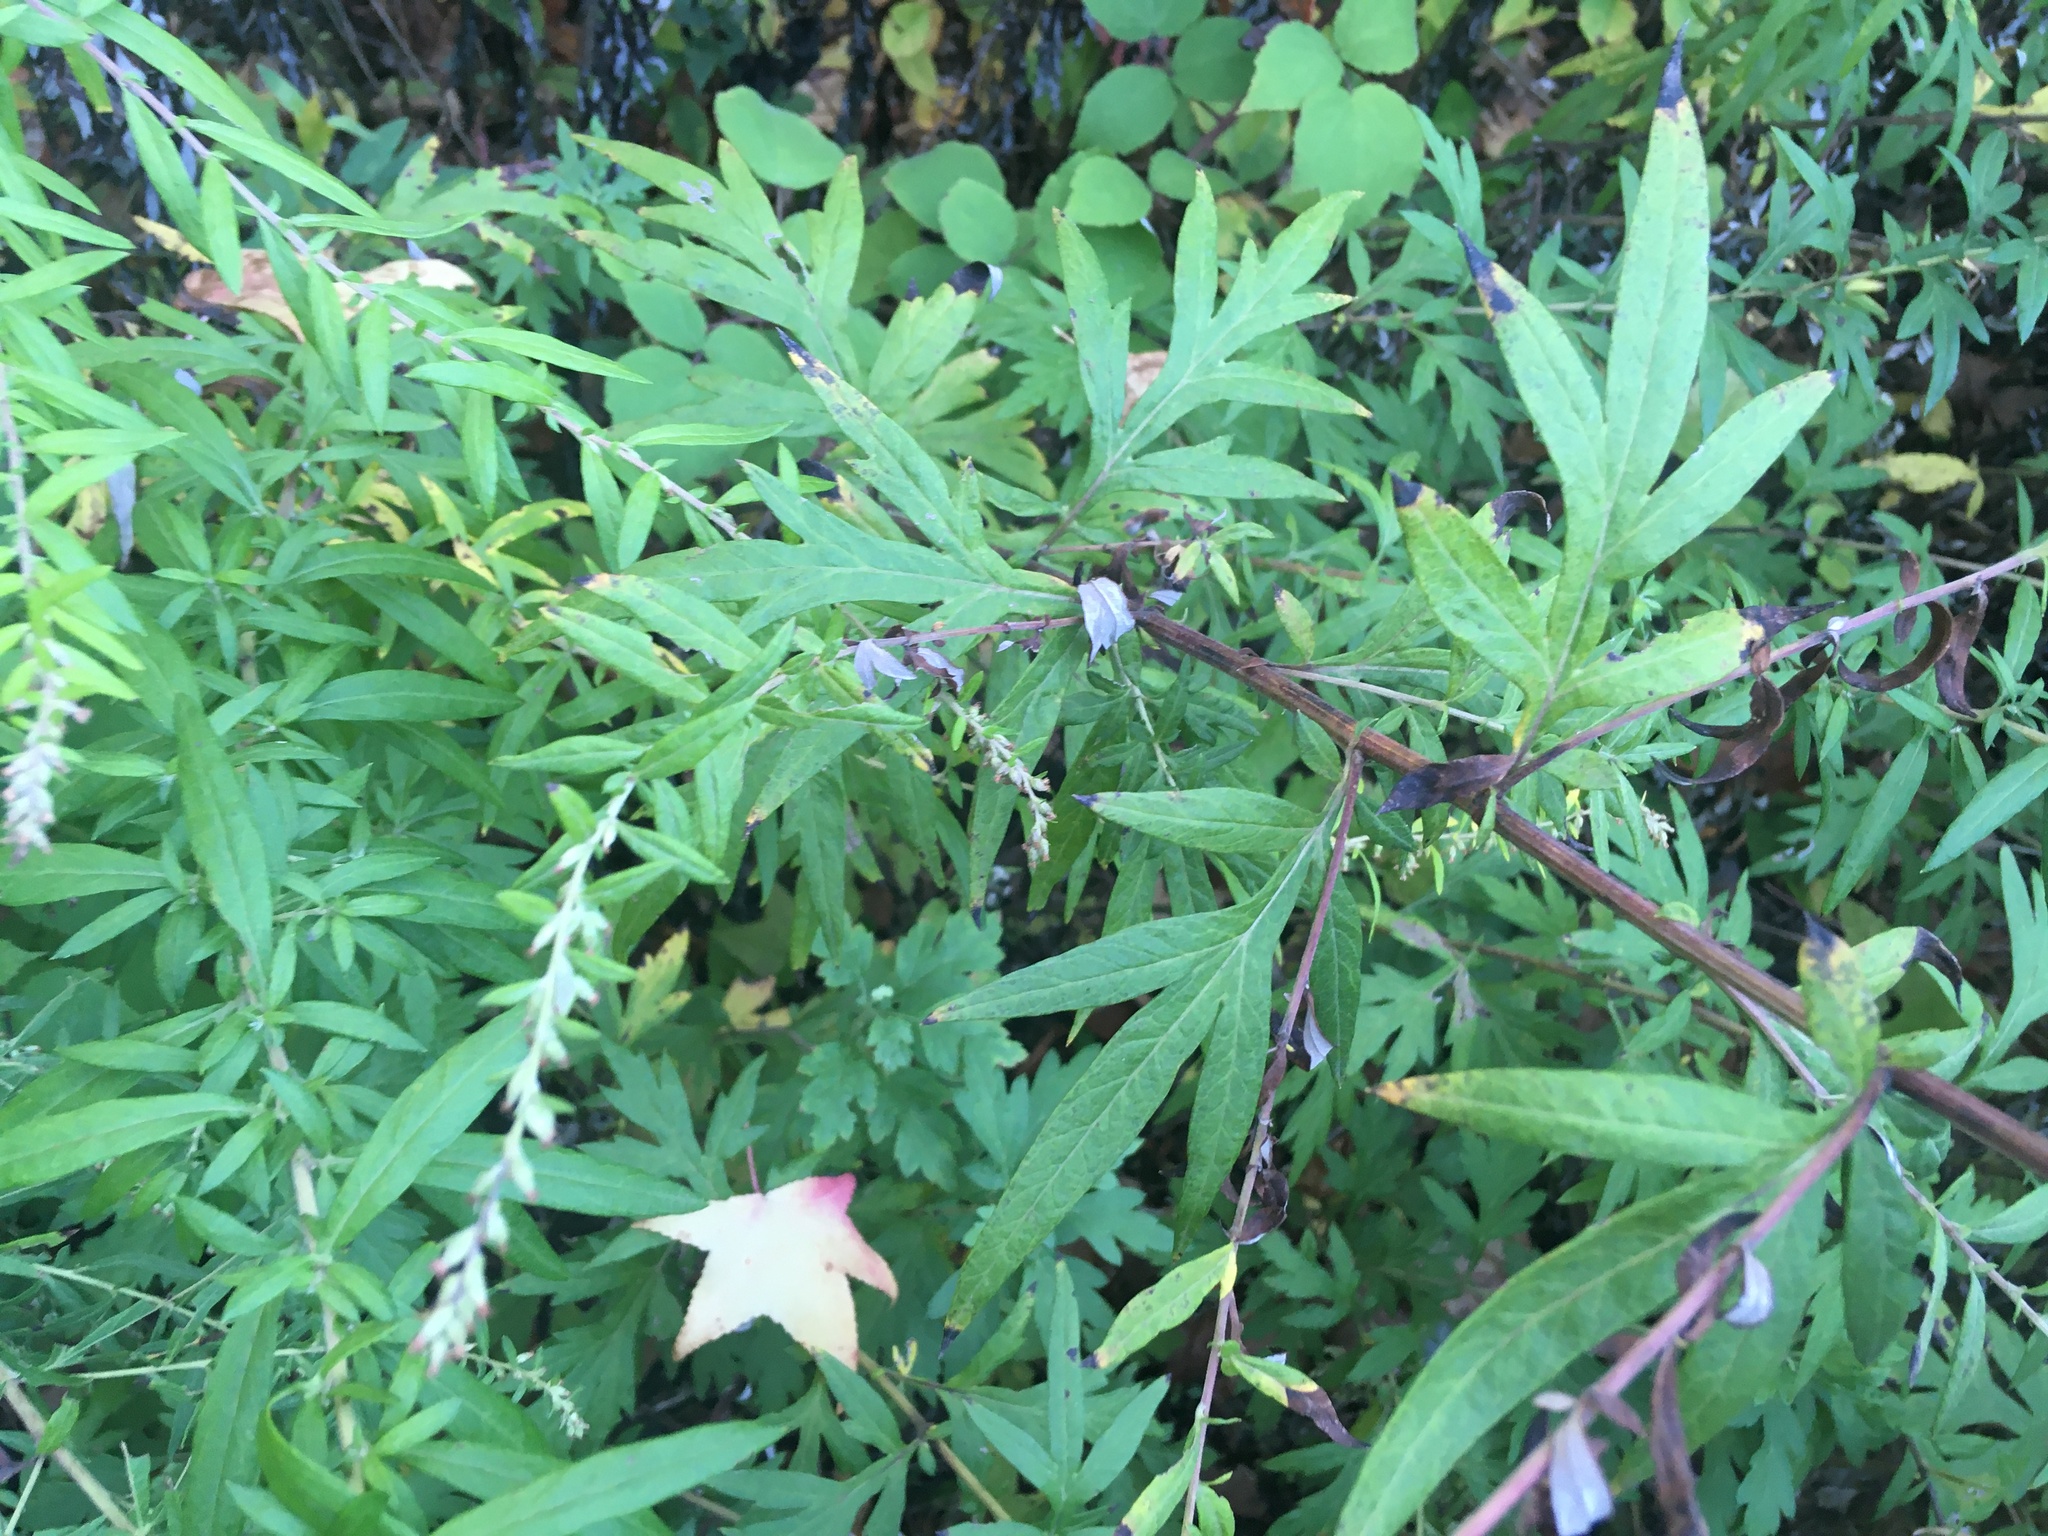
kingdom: Plantae
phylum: Tracheophyta
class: Magnoliopsida
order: Asterales
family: Asteraceae
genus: Artemisia
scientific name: Artemisia vulgaris
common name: Mugwort
